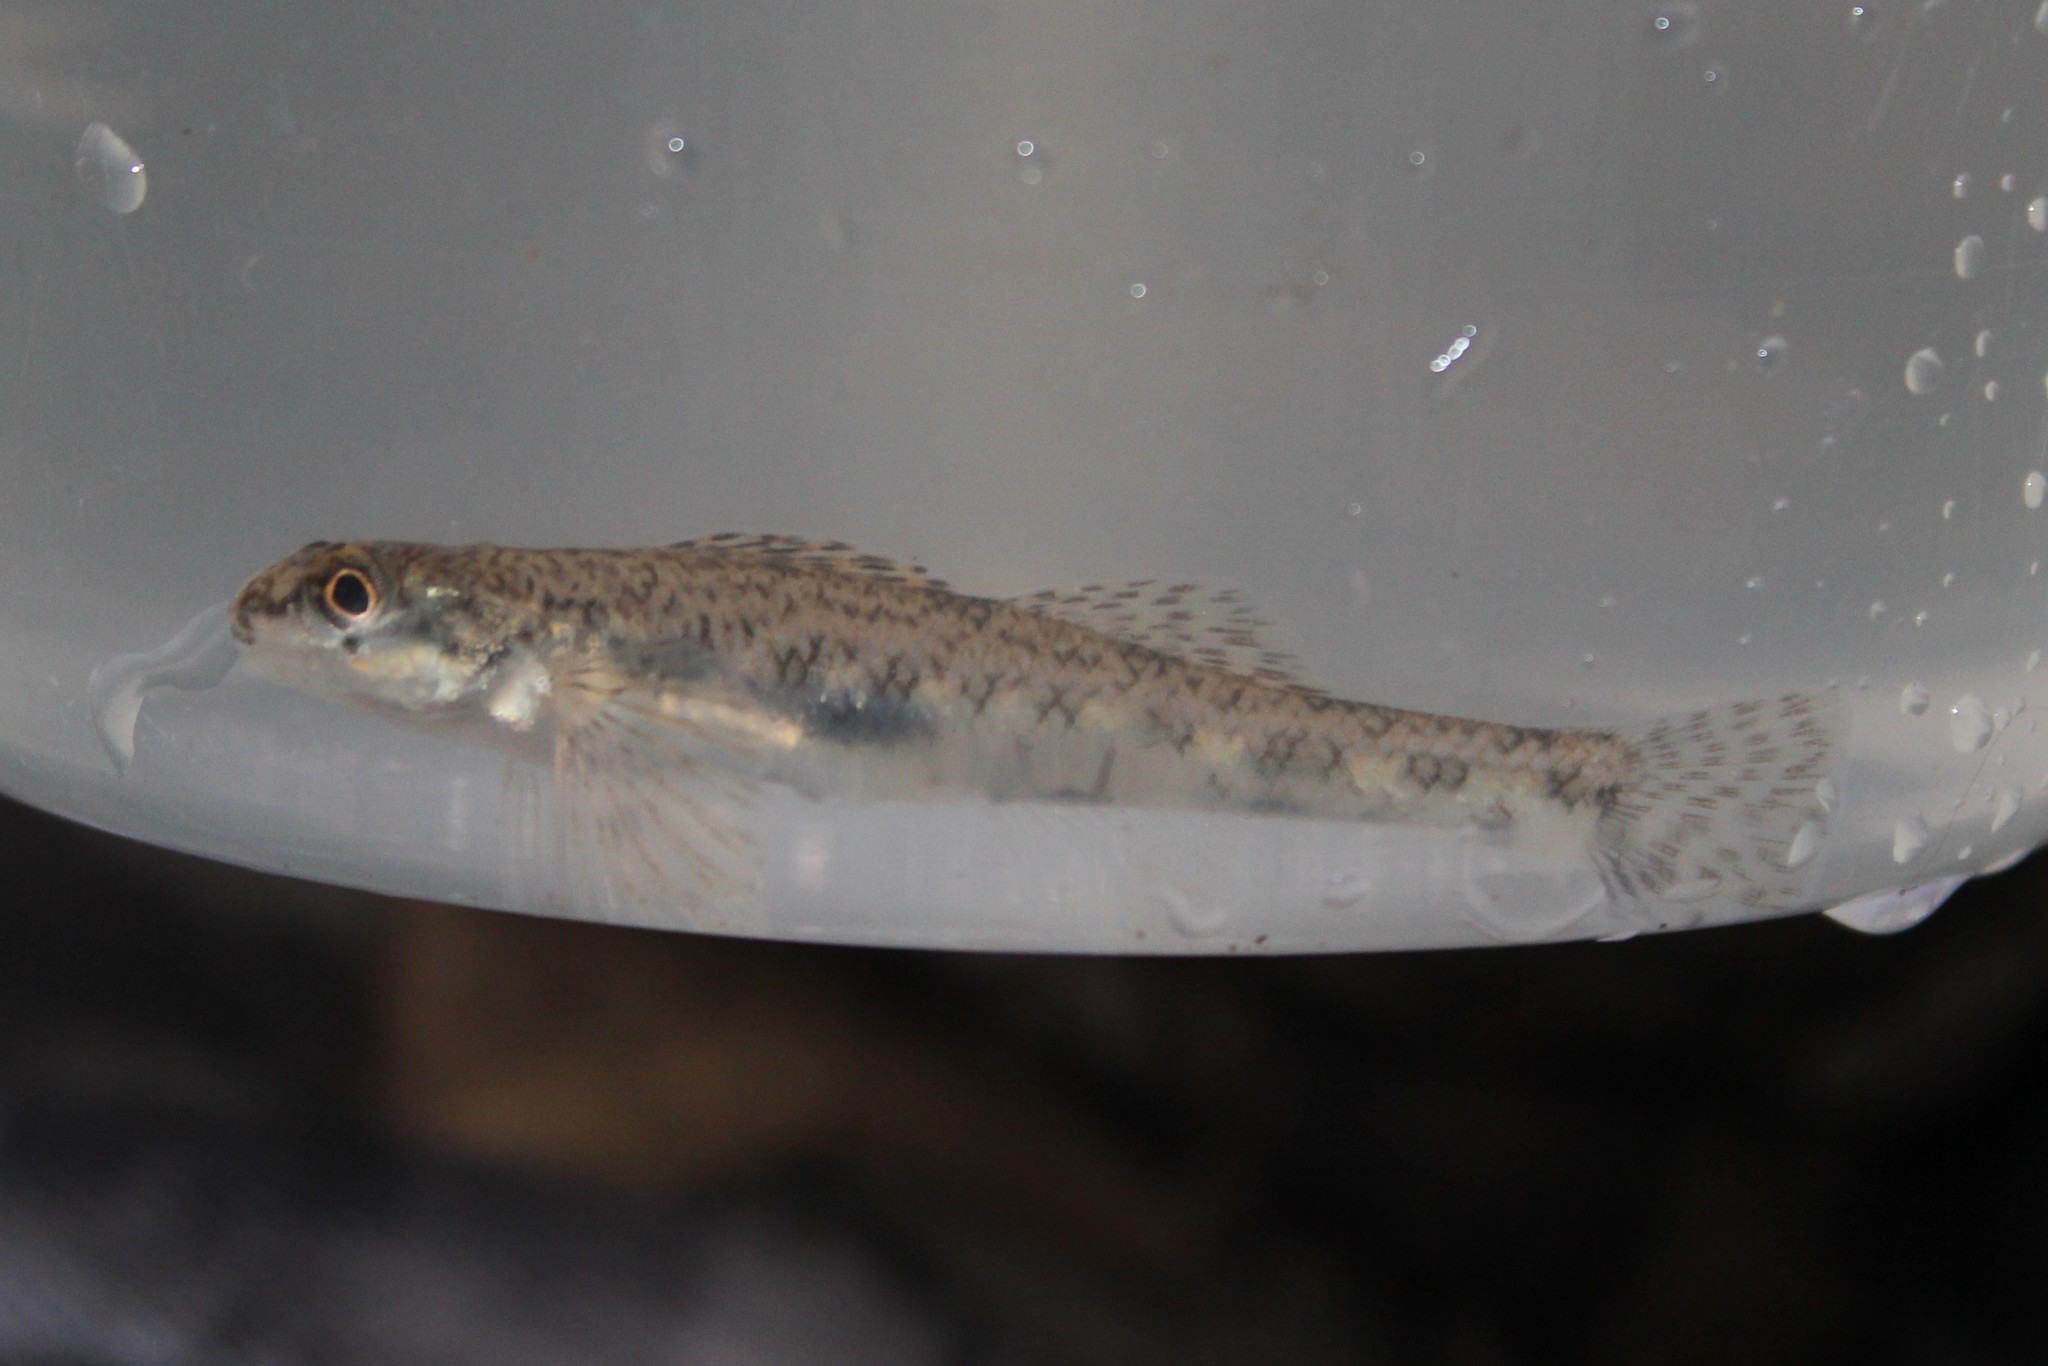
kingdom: Animalia
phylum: Chordata
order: Perciformes
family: Percidae
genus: Etheostoma
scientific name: Etheostoma nigrum
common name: Johnny darter
